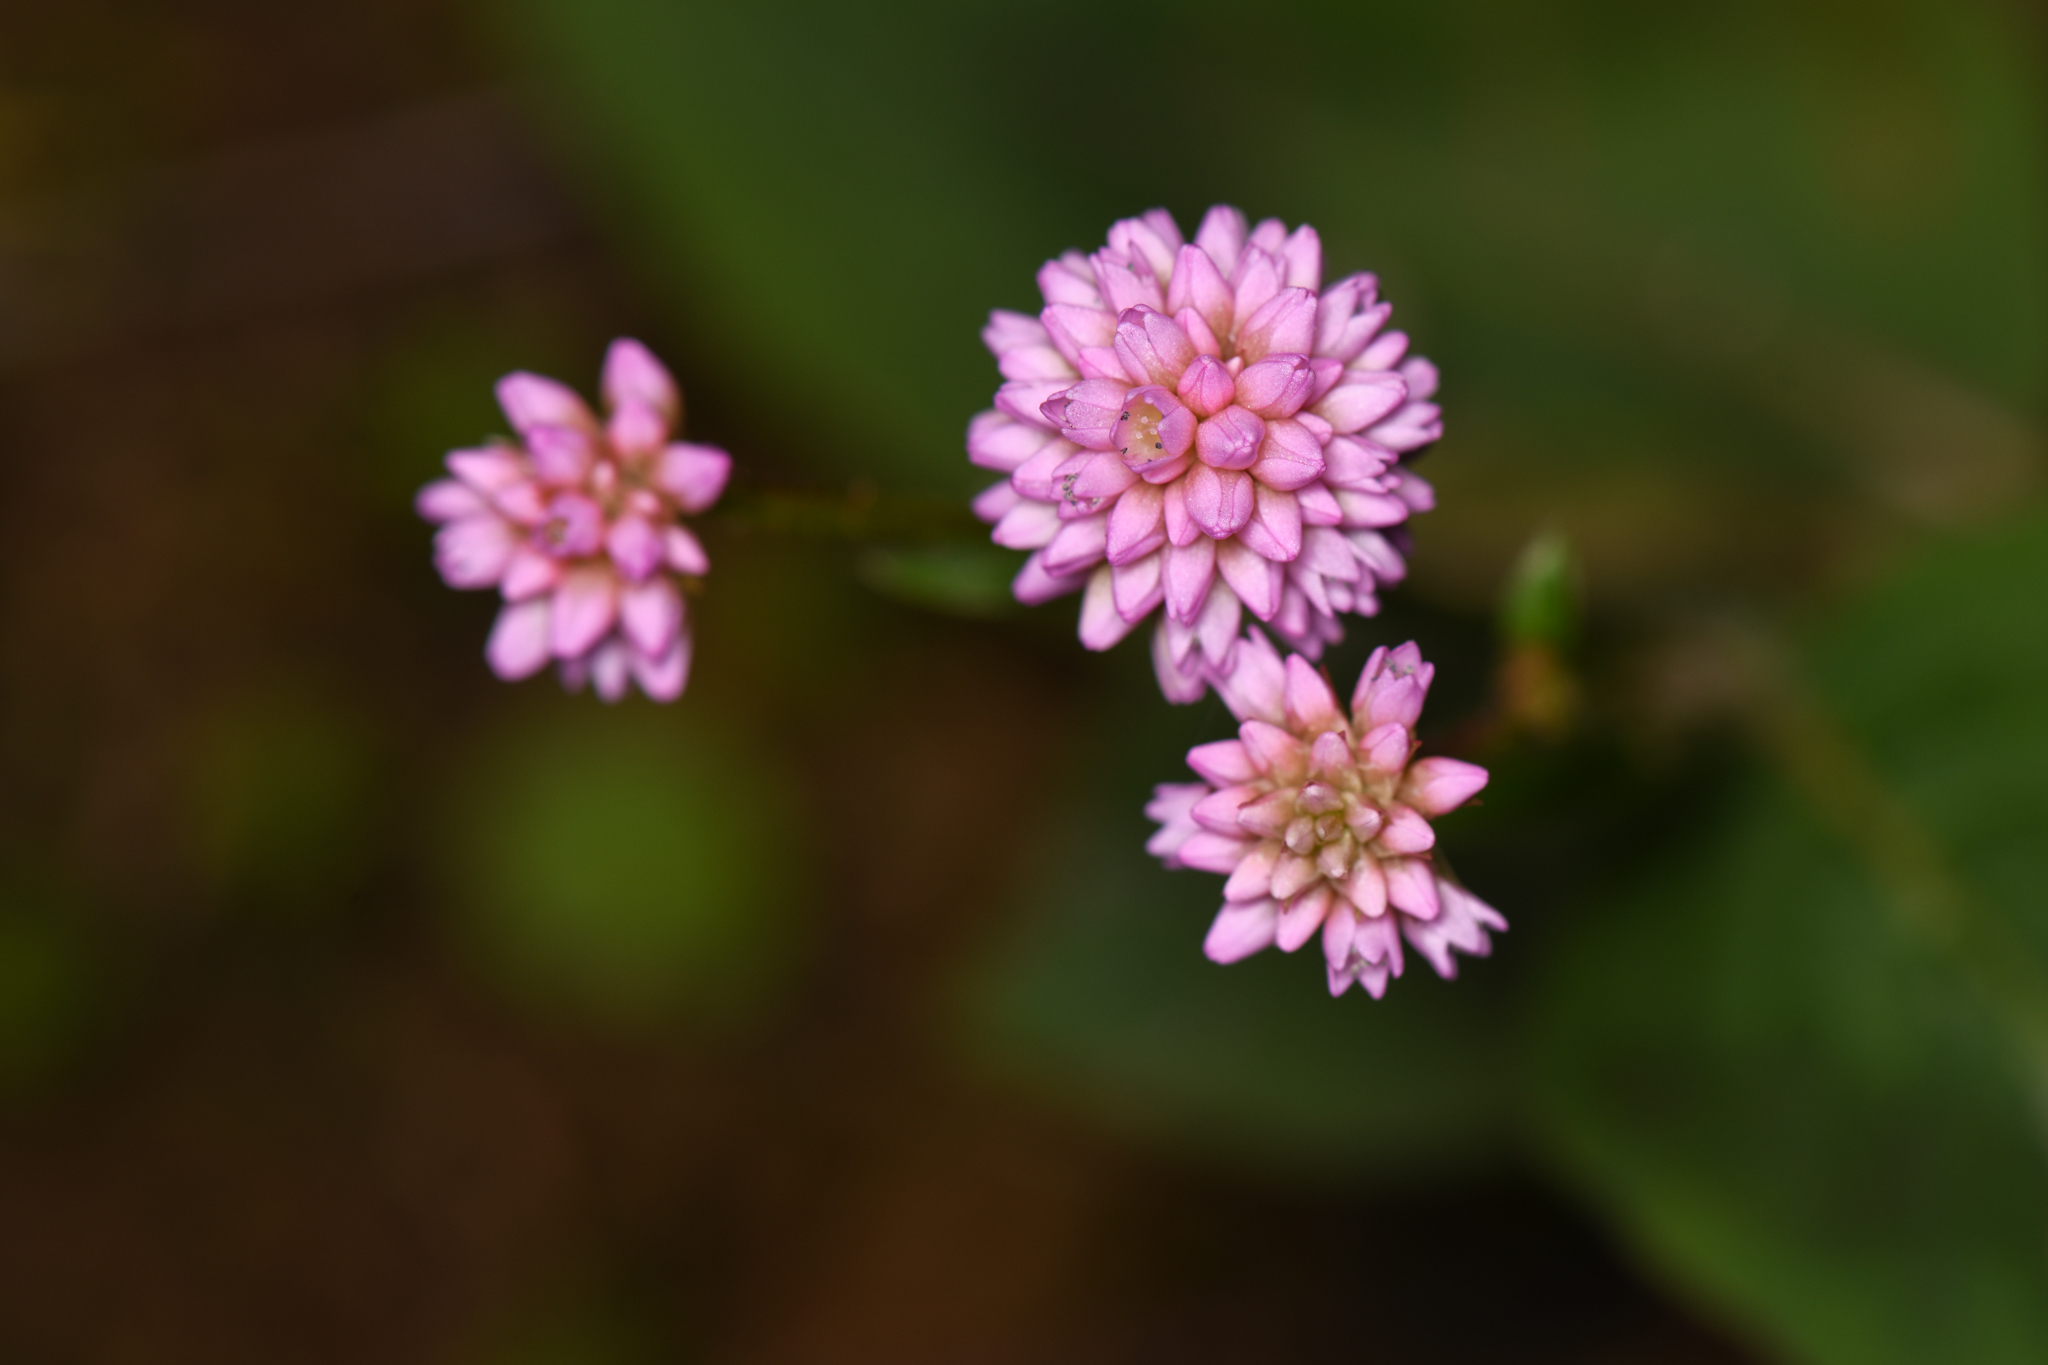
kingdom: Plantae
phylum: Tracheophyta
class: Magnoliopsida
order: Caryophyllales
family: Polygonaceae
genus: Persicaria
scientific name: Persicaria capitata
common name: Pinkhead smartweed
